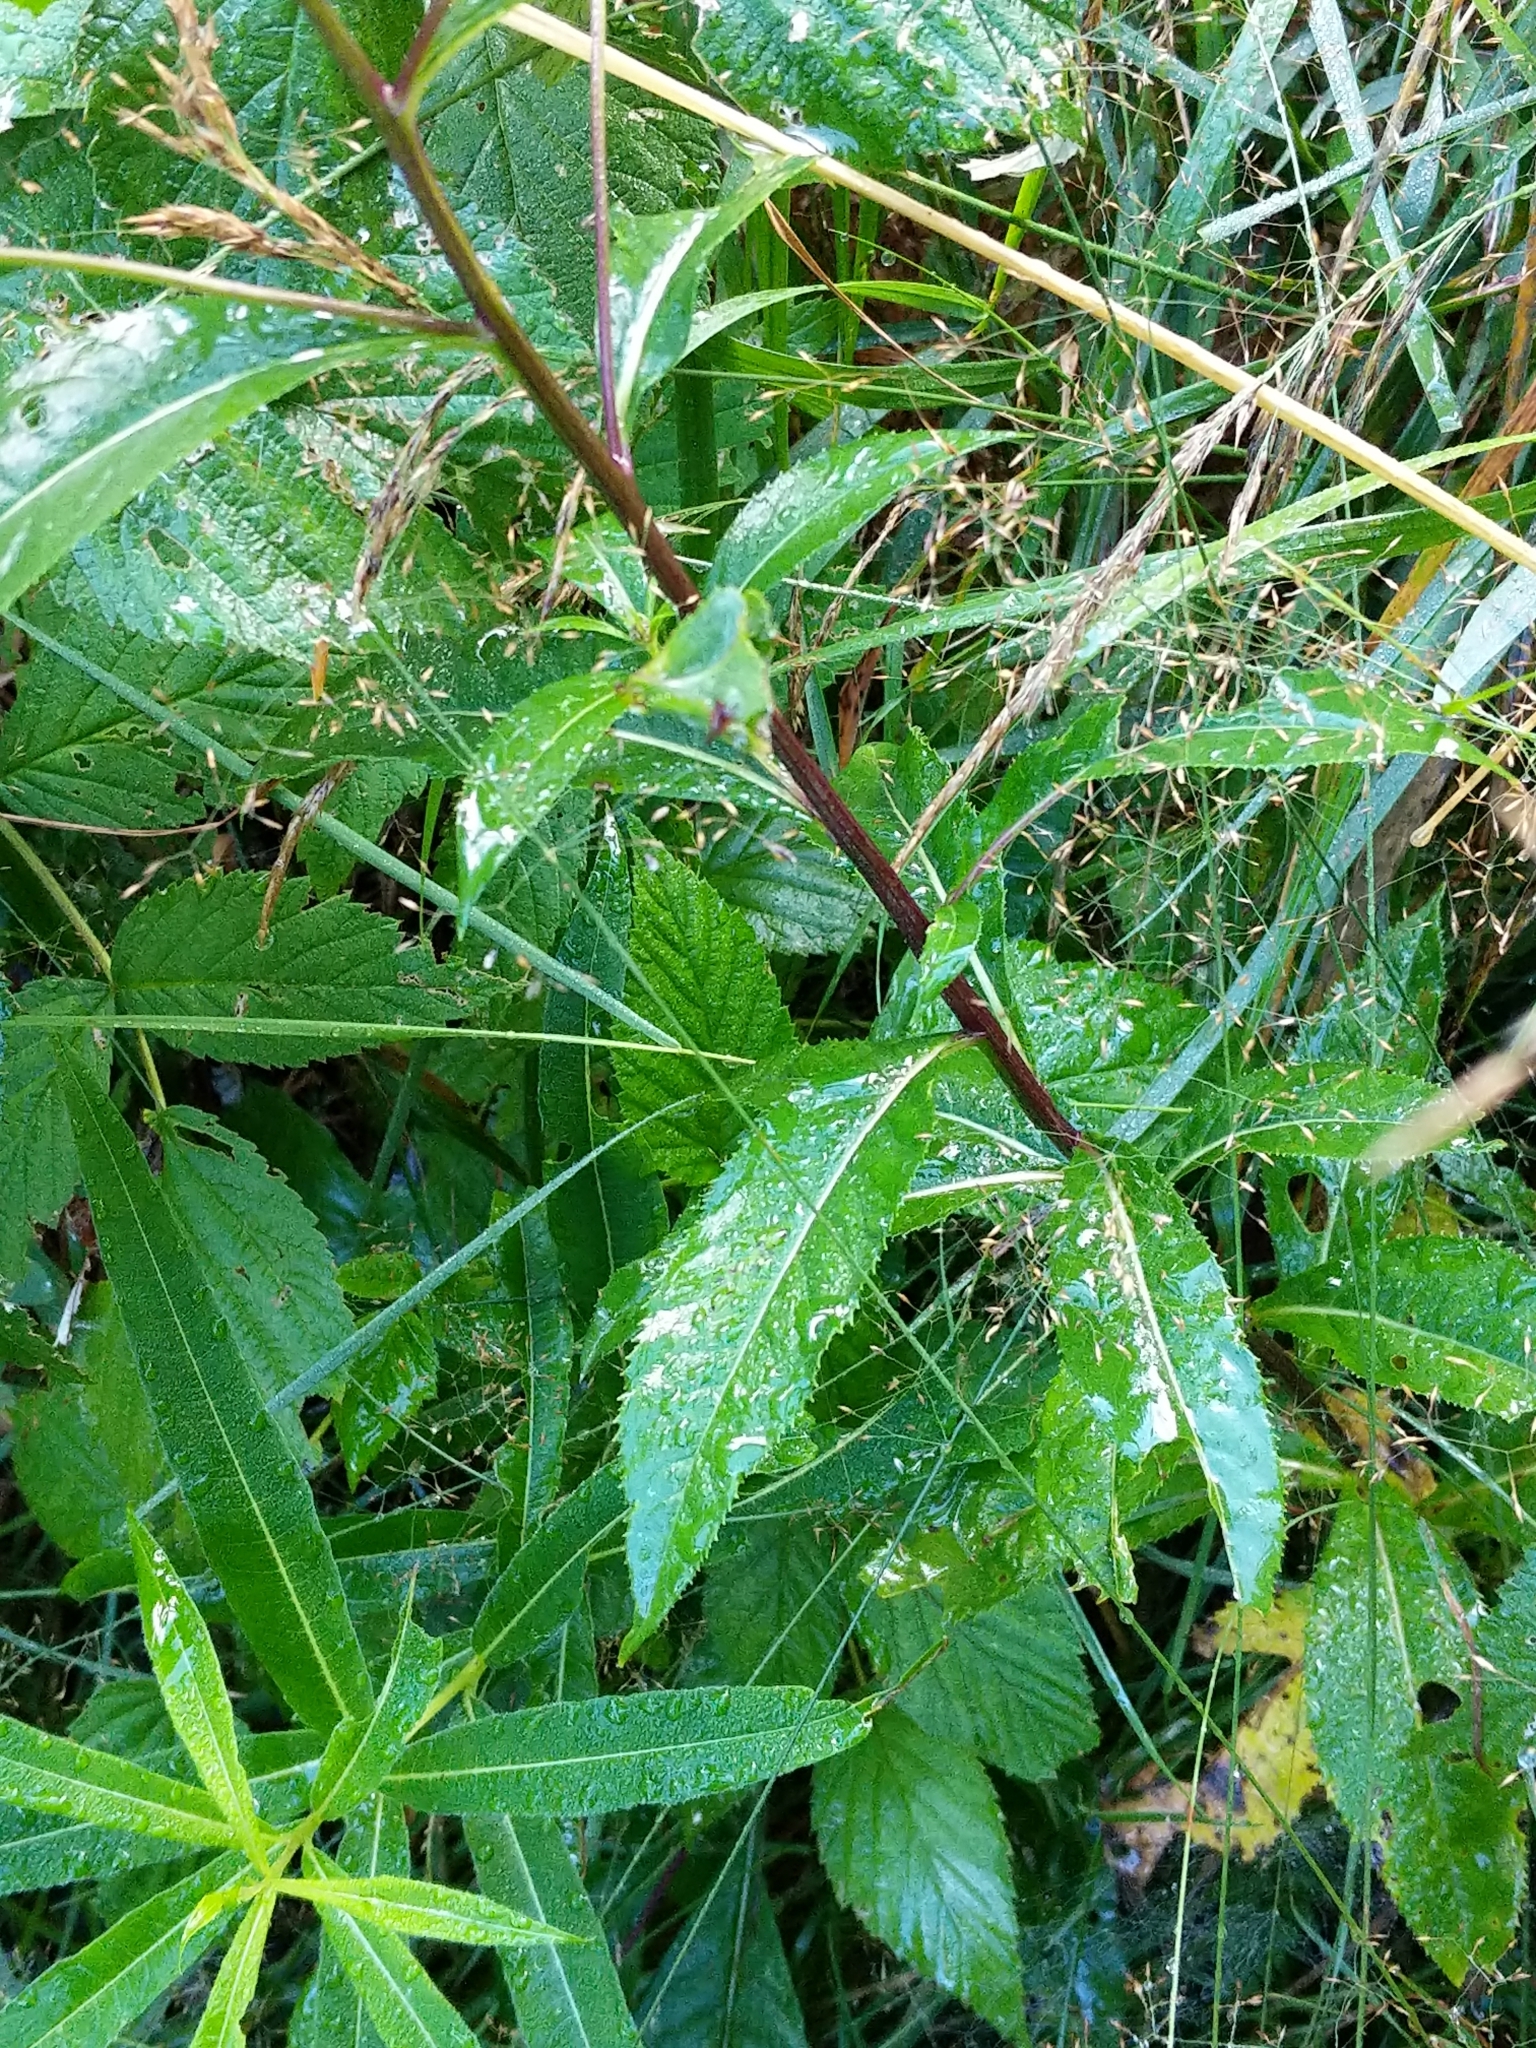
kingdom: Plantae
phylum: Tracheophyta
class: Magnoliopsida
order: Asterales
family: Asteraceae
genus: Senecio
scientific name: Senecio ovatus
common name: Wood ragwort
